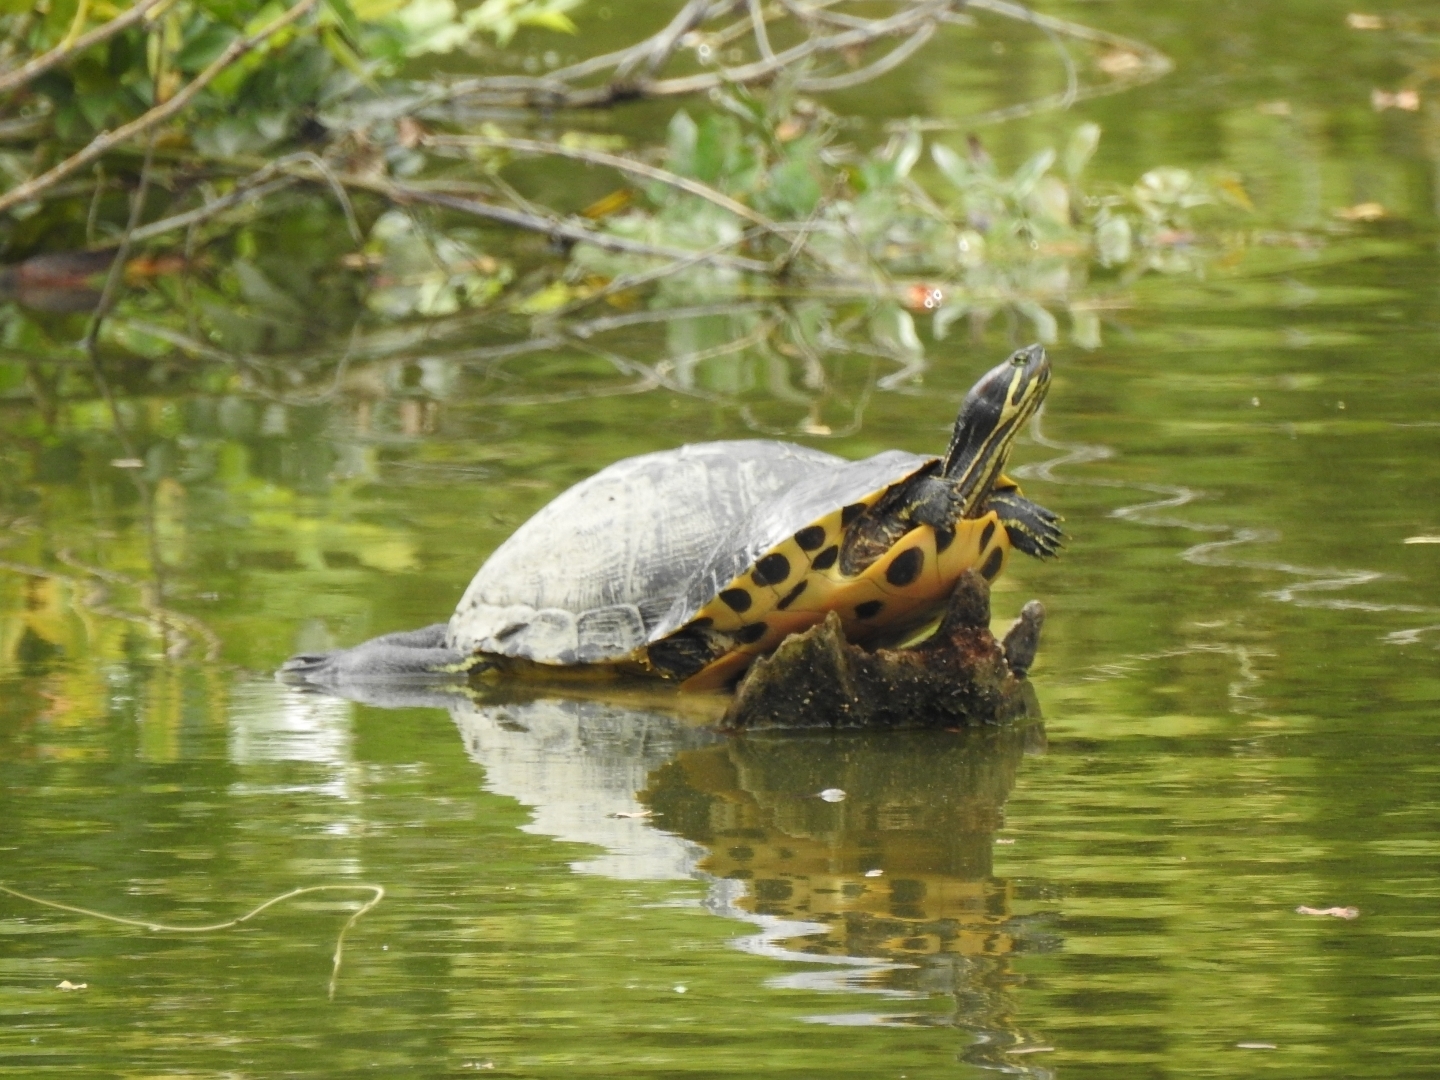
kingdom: Animalia
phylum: Chordata
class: Testudines
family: Emydidae
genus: Trachemys
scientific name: Trachemys scripta
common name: Slider
